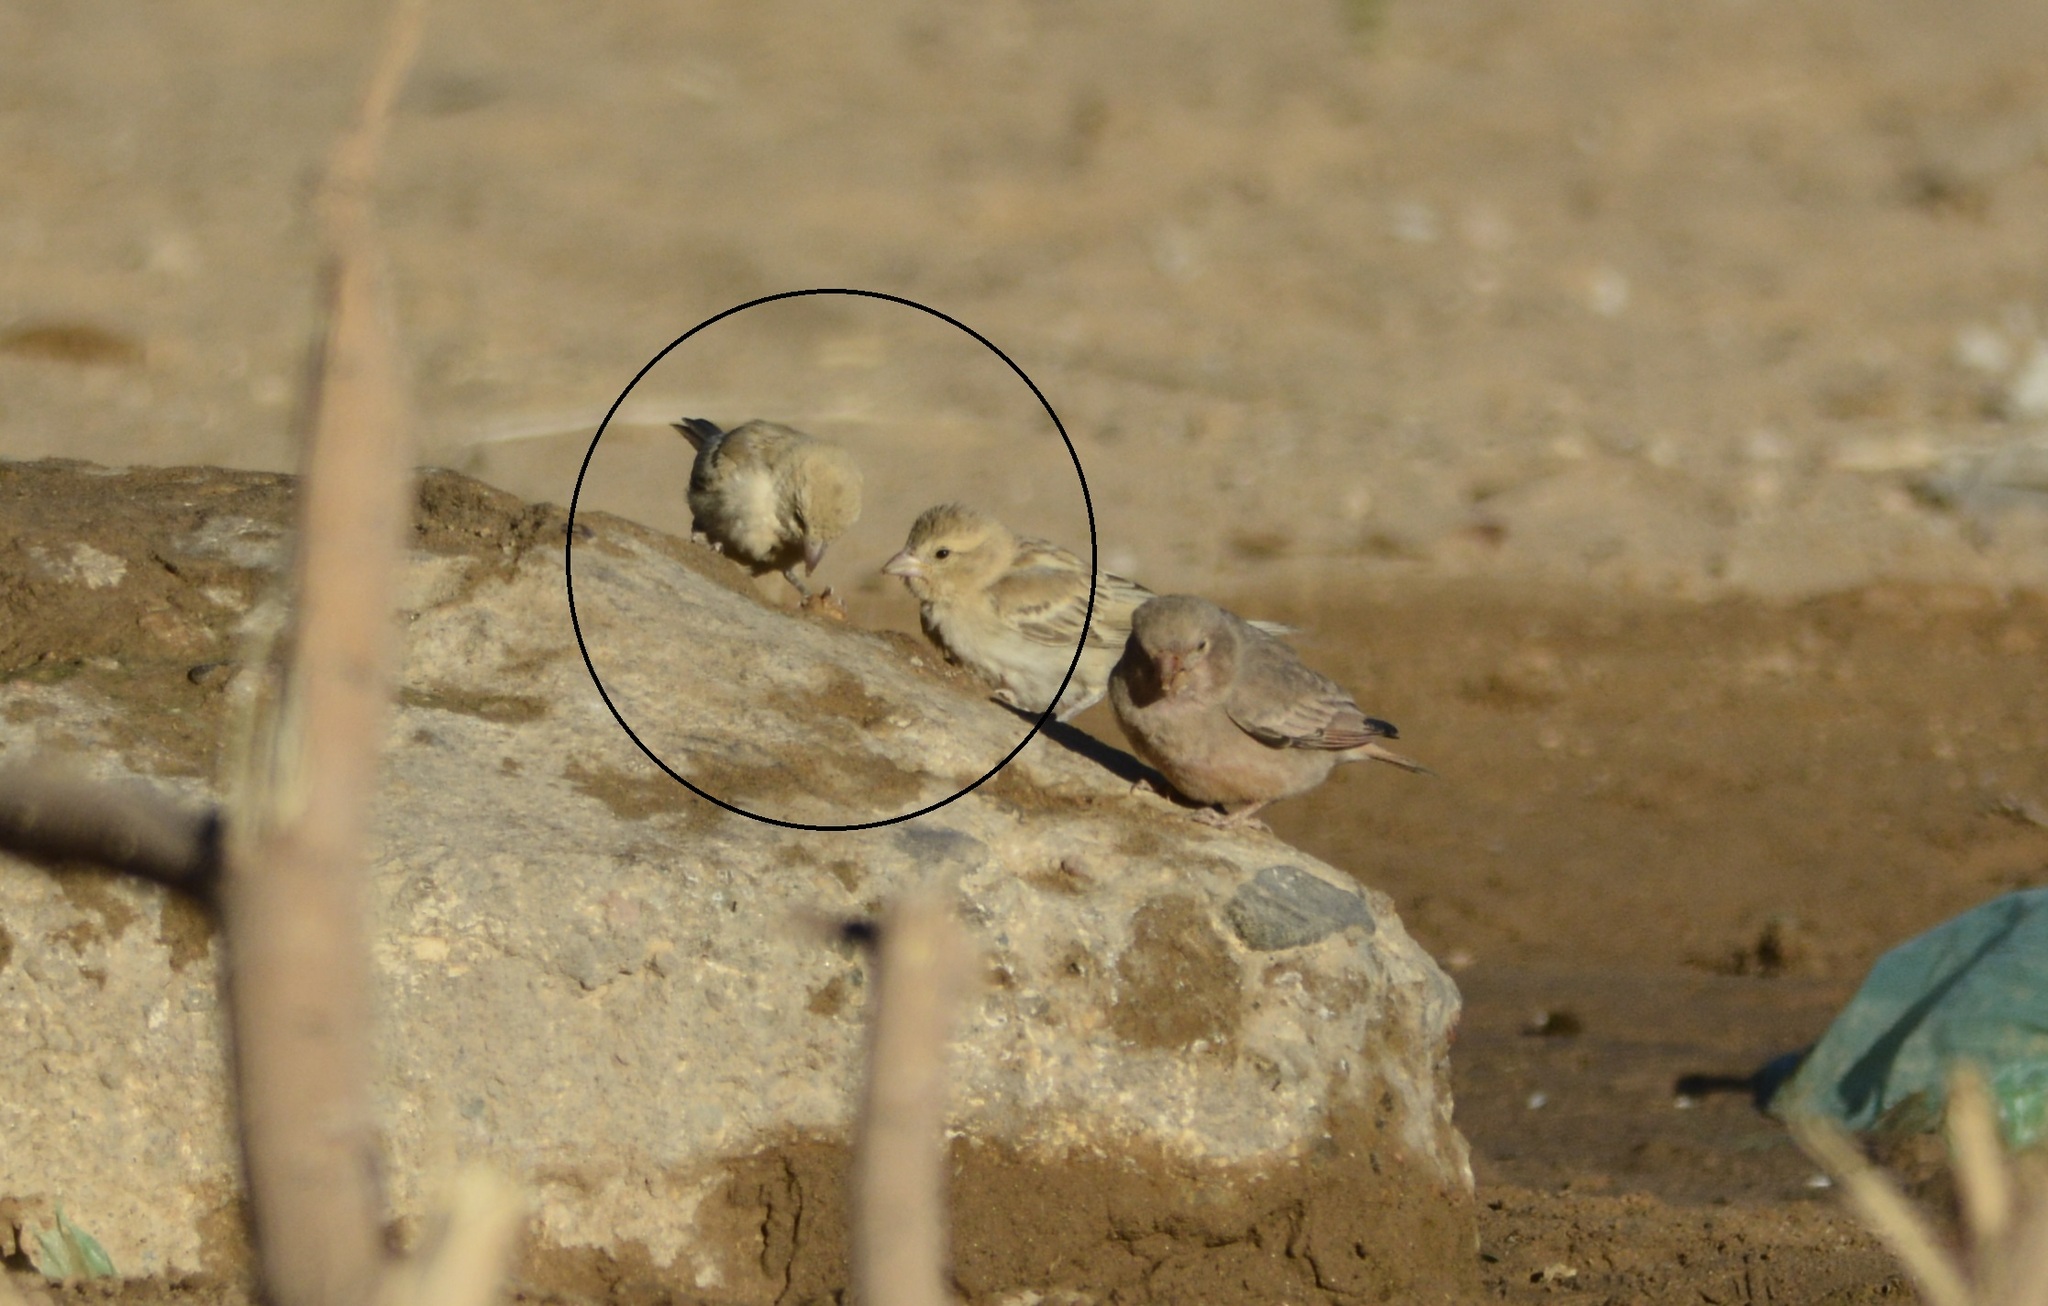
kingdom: Animalia
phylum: Chordata
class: Aves
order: Passeriformes
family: Passeridae
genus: Passer
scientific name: Passer luteus
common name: Sudan golden sparrow
